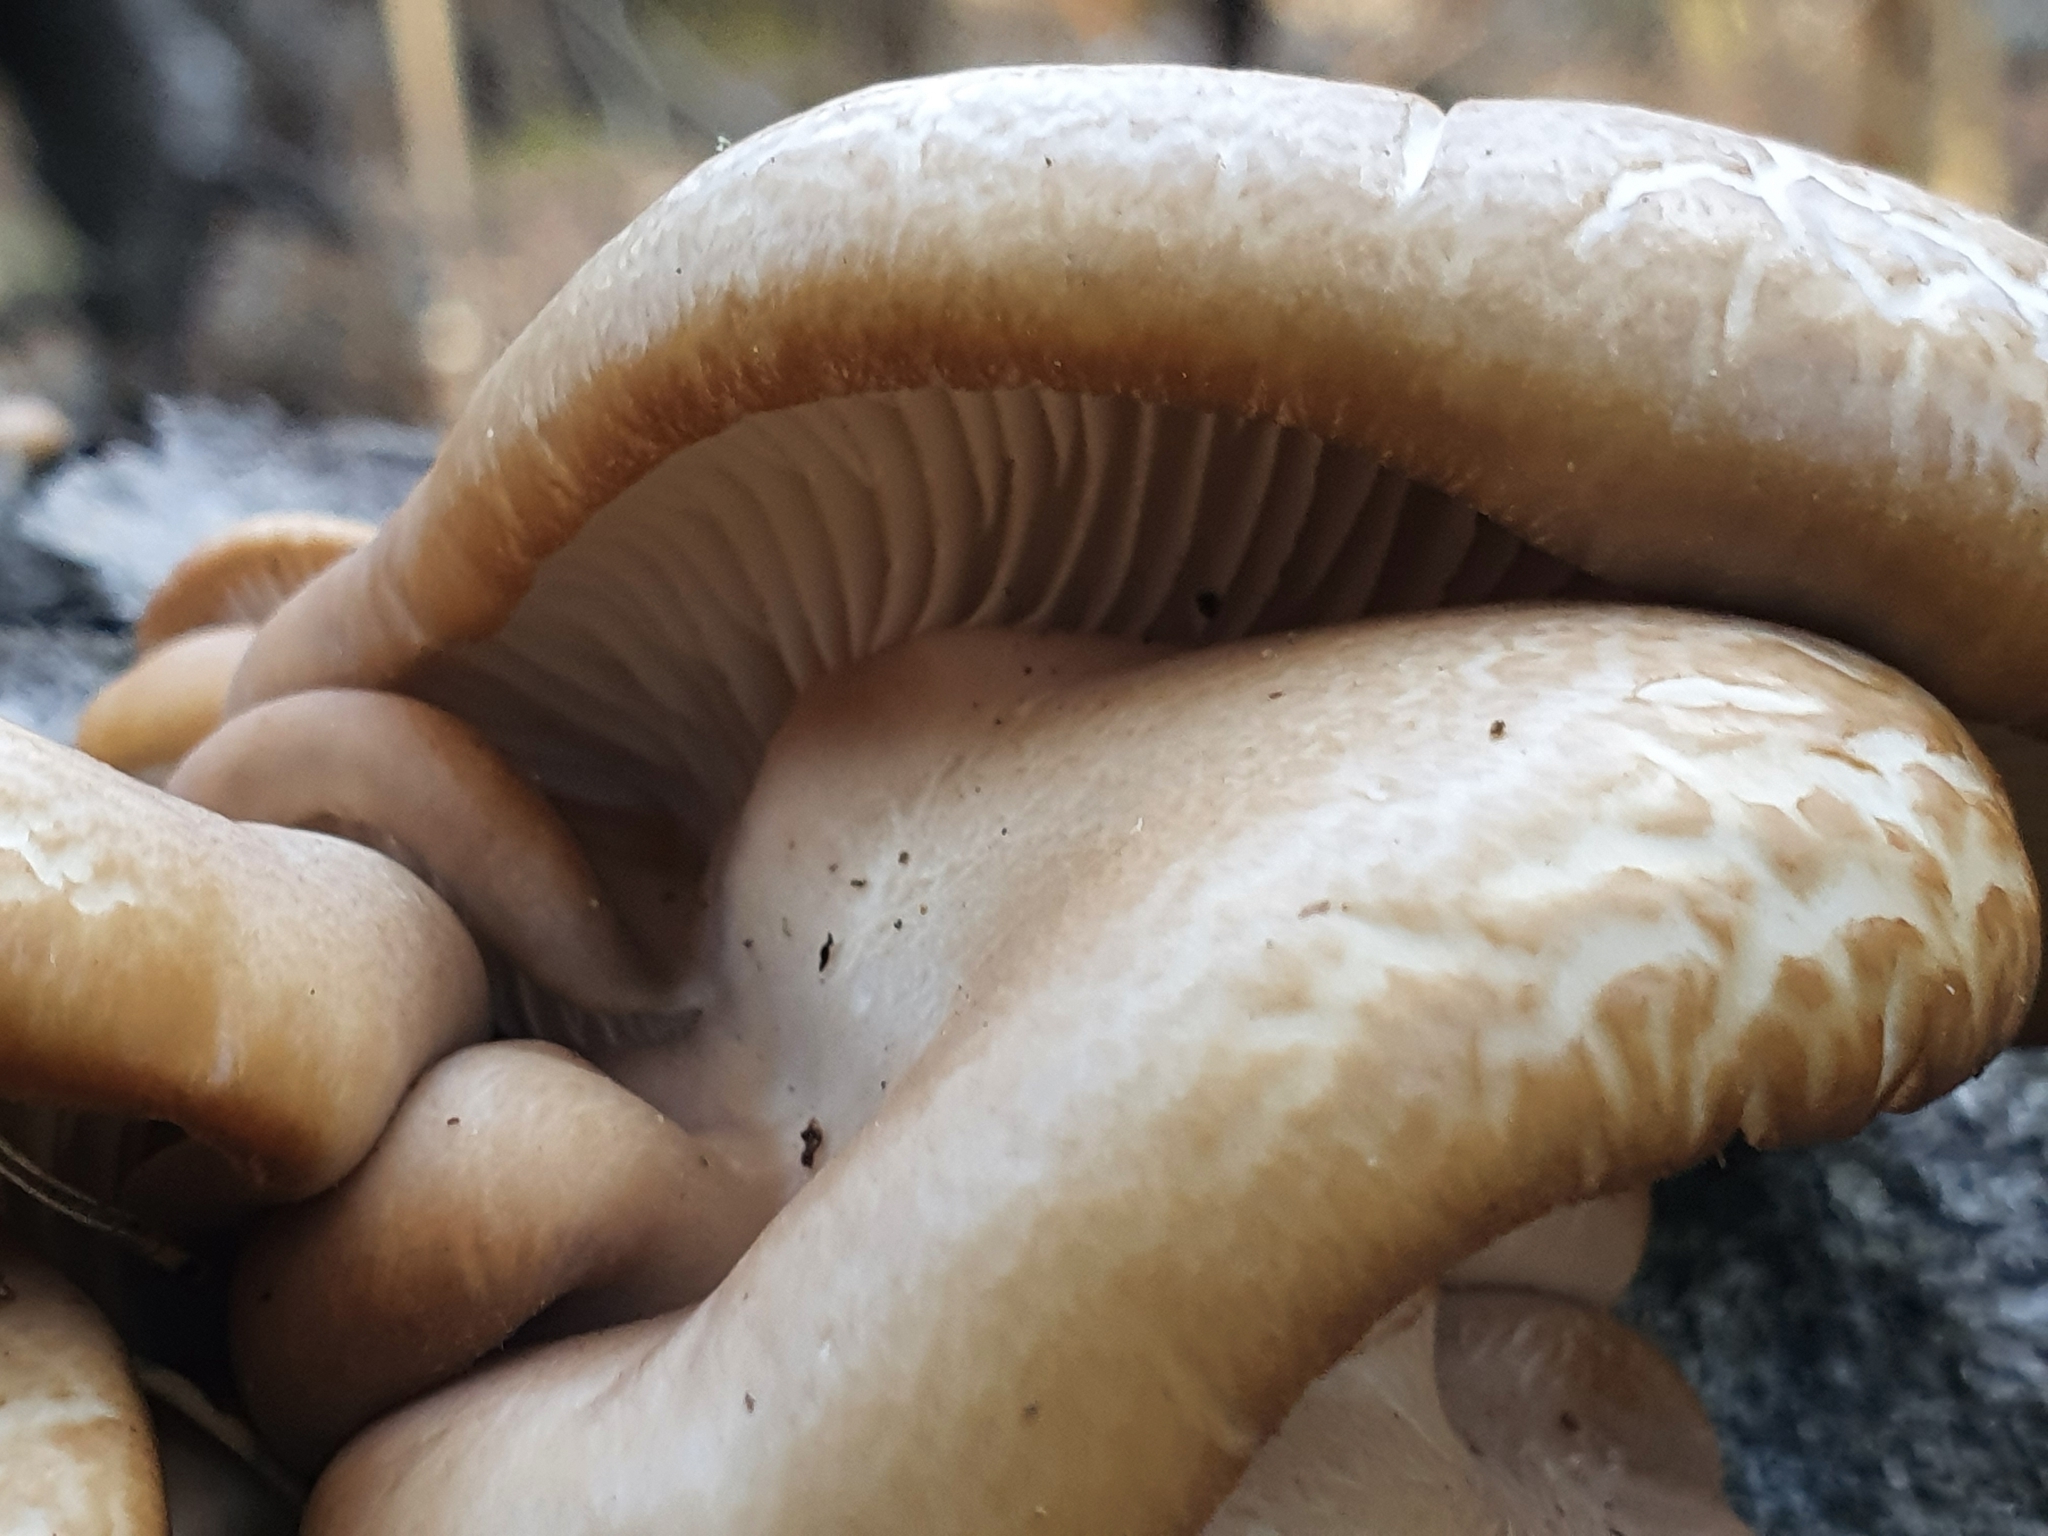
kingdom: Fungi
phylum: Basidiomycota
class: Agaricomycetes
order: Agaricales
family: Pleurotaceae
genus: Pleurotus
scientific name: Pleurotus ostreatus
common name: Oyster mushroom
